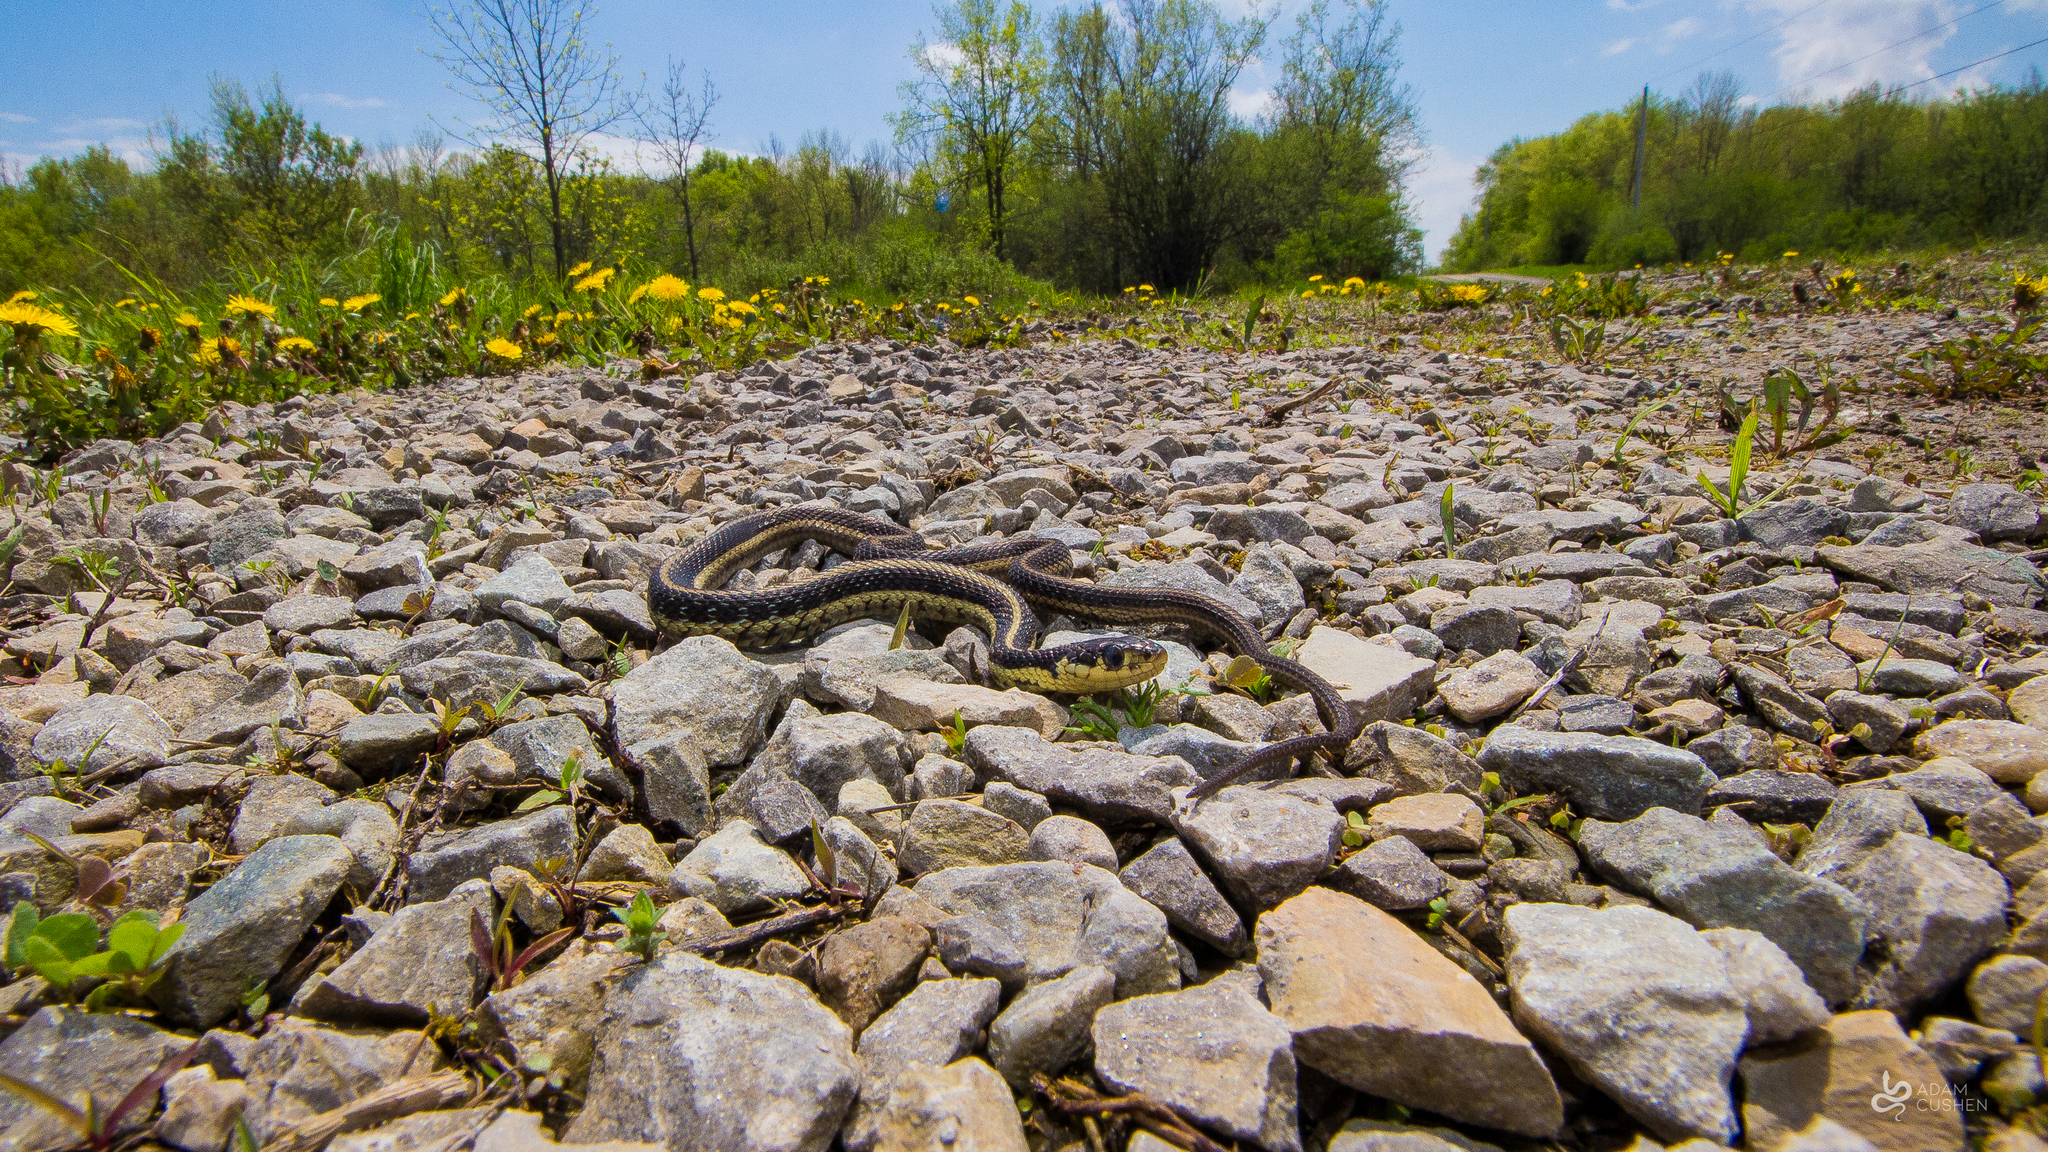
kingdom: Animalia
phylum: Chordata
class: Squamata
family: Colubridae
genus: Thamnophis
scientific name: Thamnophis sirtalis
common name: Common garter snake
